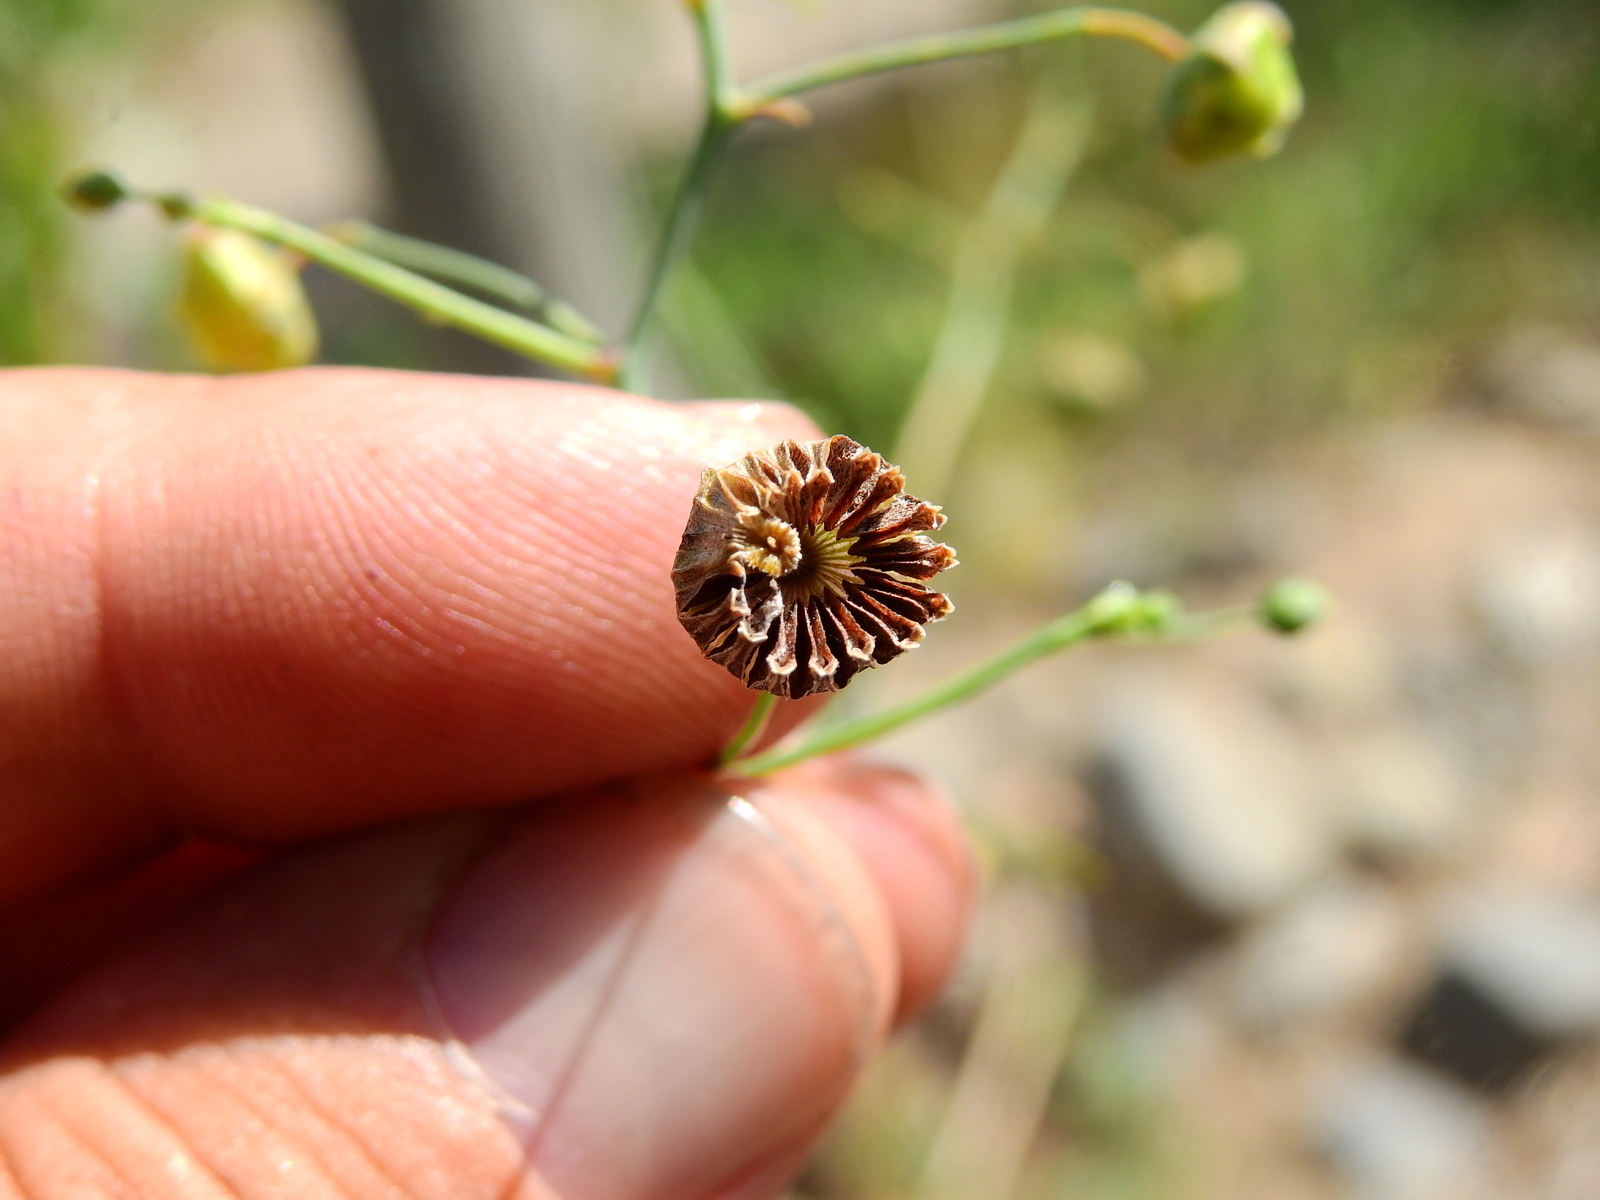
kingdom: Plantae
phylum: Tracheophyta
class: Magnoliopsida
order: Malvales
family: Malvaceae
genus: Lecanophora
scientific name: Lecanophora ecristata
